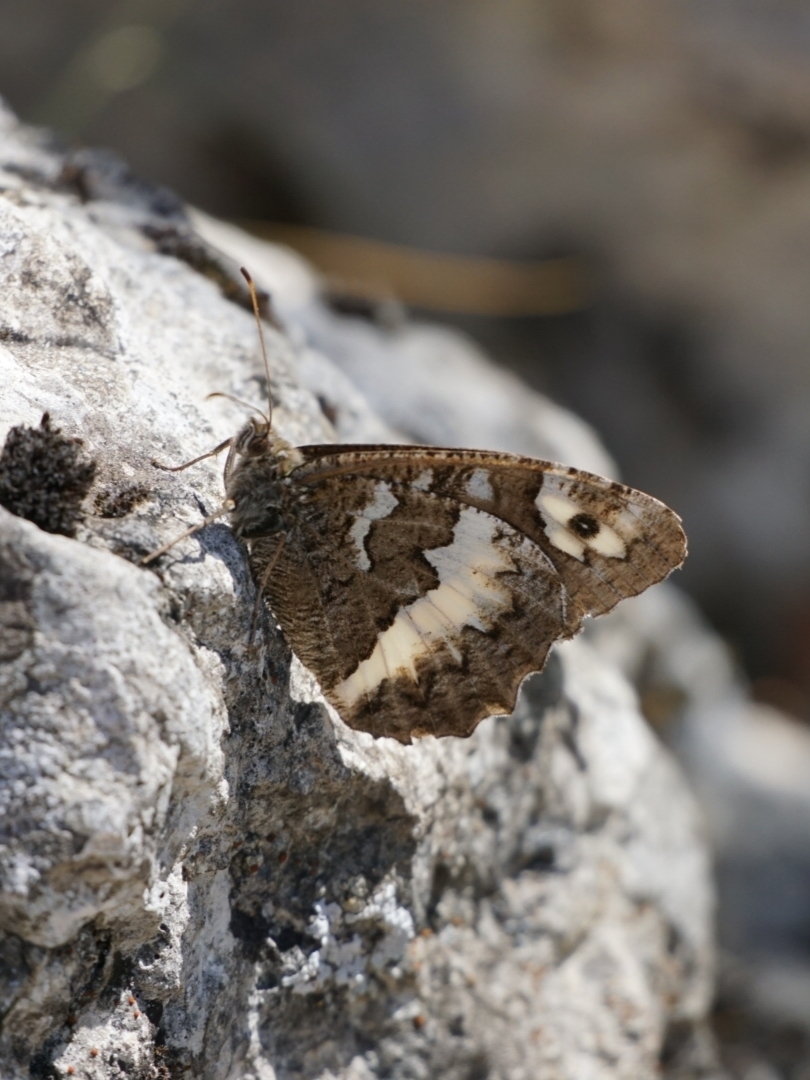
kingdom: Animalia
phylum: Arthropoda
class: Insecta
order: Lepidoptera
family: Lycaenidae
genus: Loweia
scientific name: Loweia tityrus
